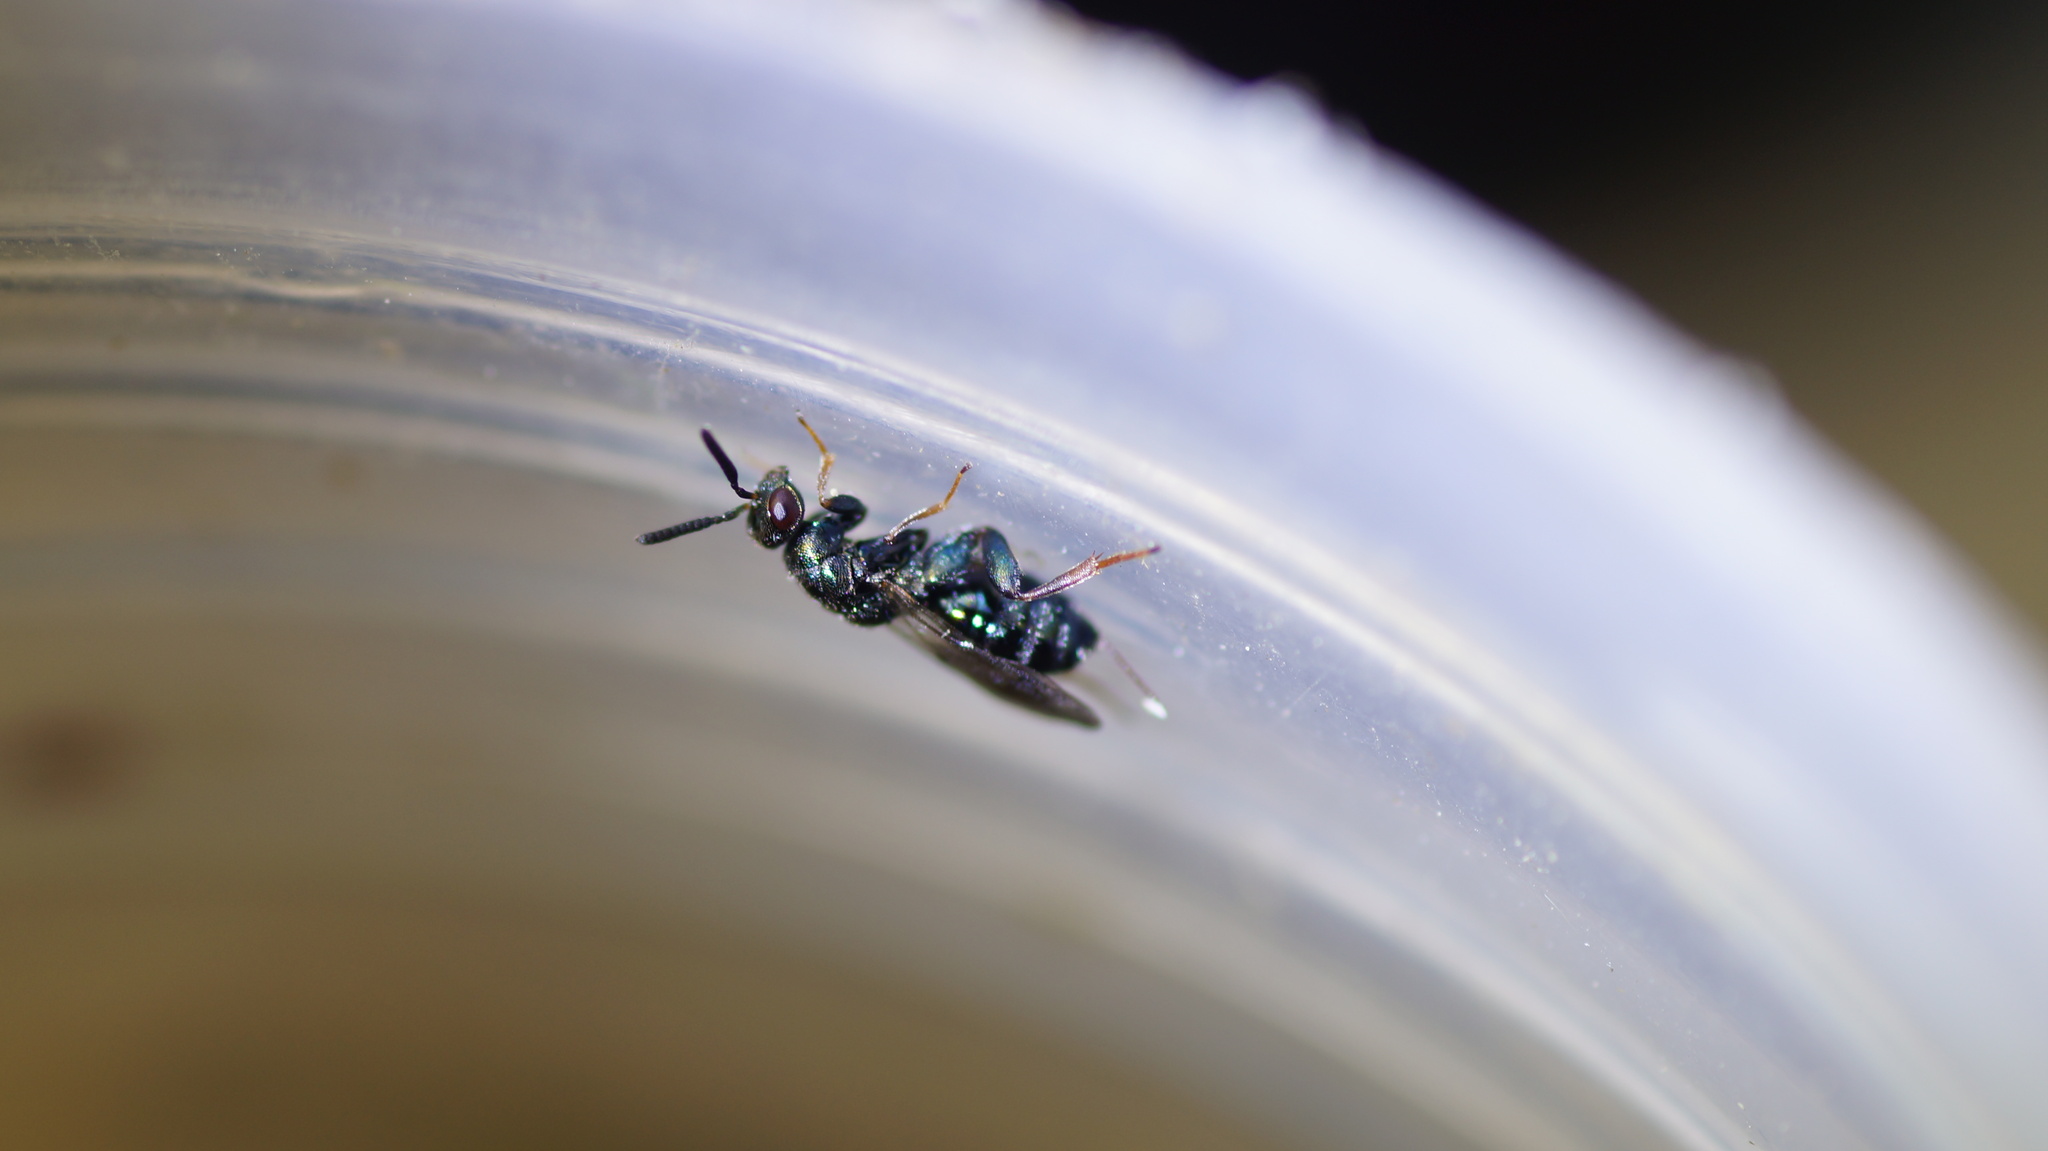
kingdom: Animalia
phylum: Arthropoda
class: Insecta
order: Hymenoptera
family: Torymidae
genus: Monodontomerus
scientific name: Monodontomerus
